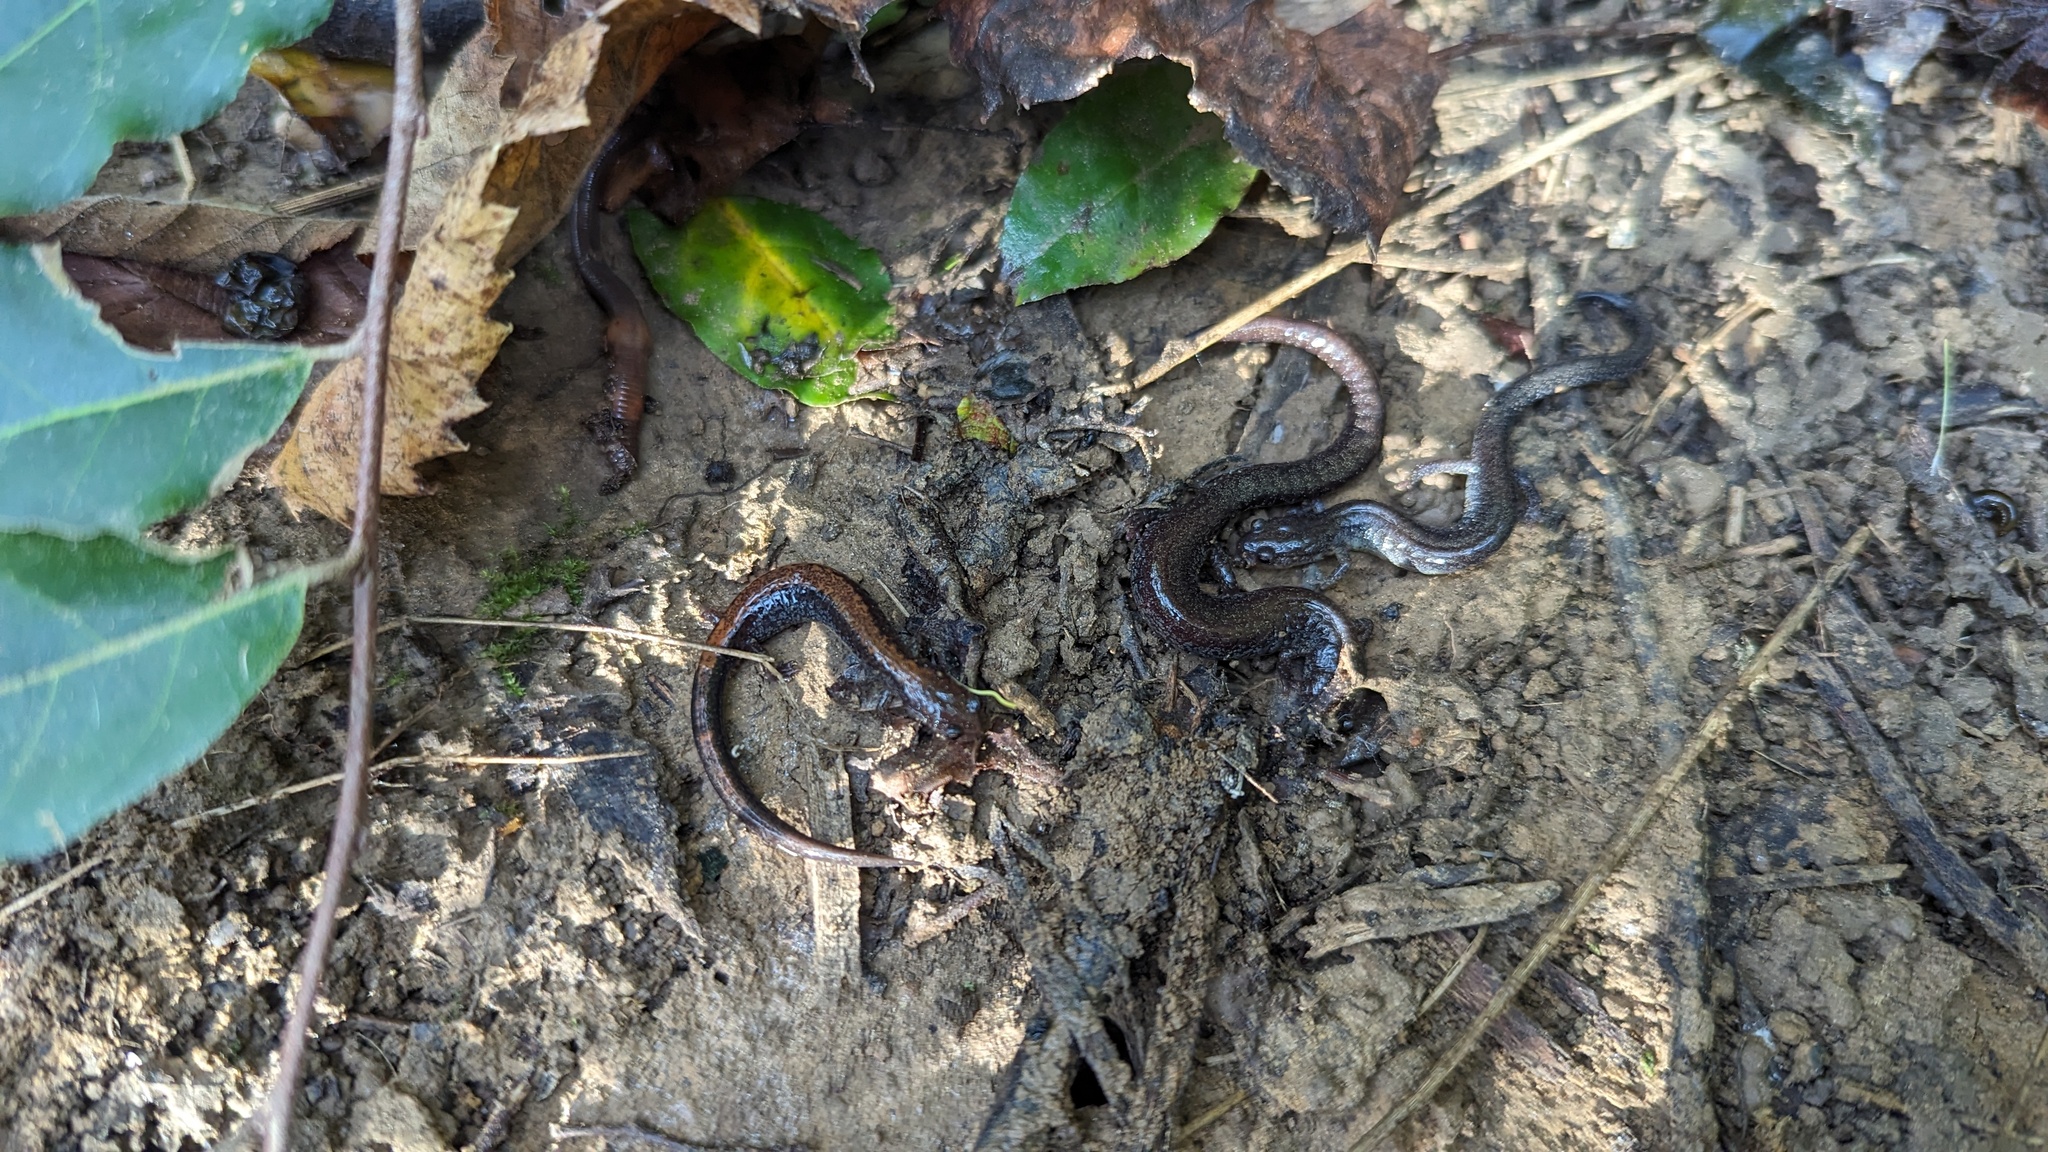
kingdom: Animalia
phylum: Chordata
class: Amphibia
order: Caudata
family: Plethodontidae
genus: Plethodon
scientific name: Plethodon cinereus
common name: Redback salamander
